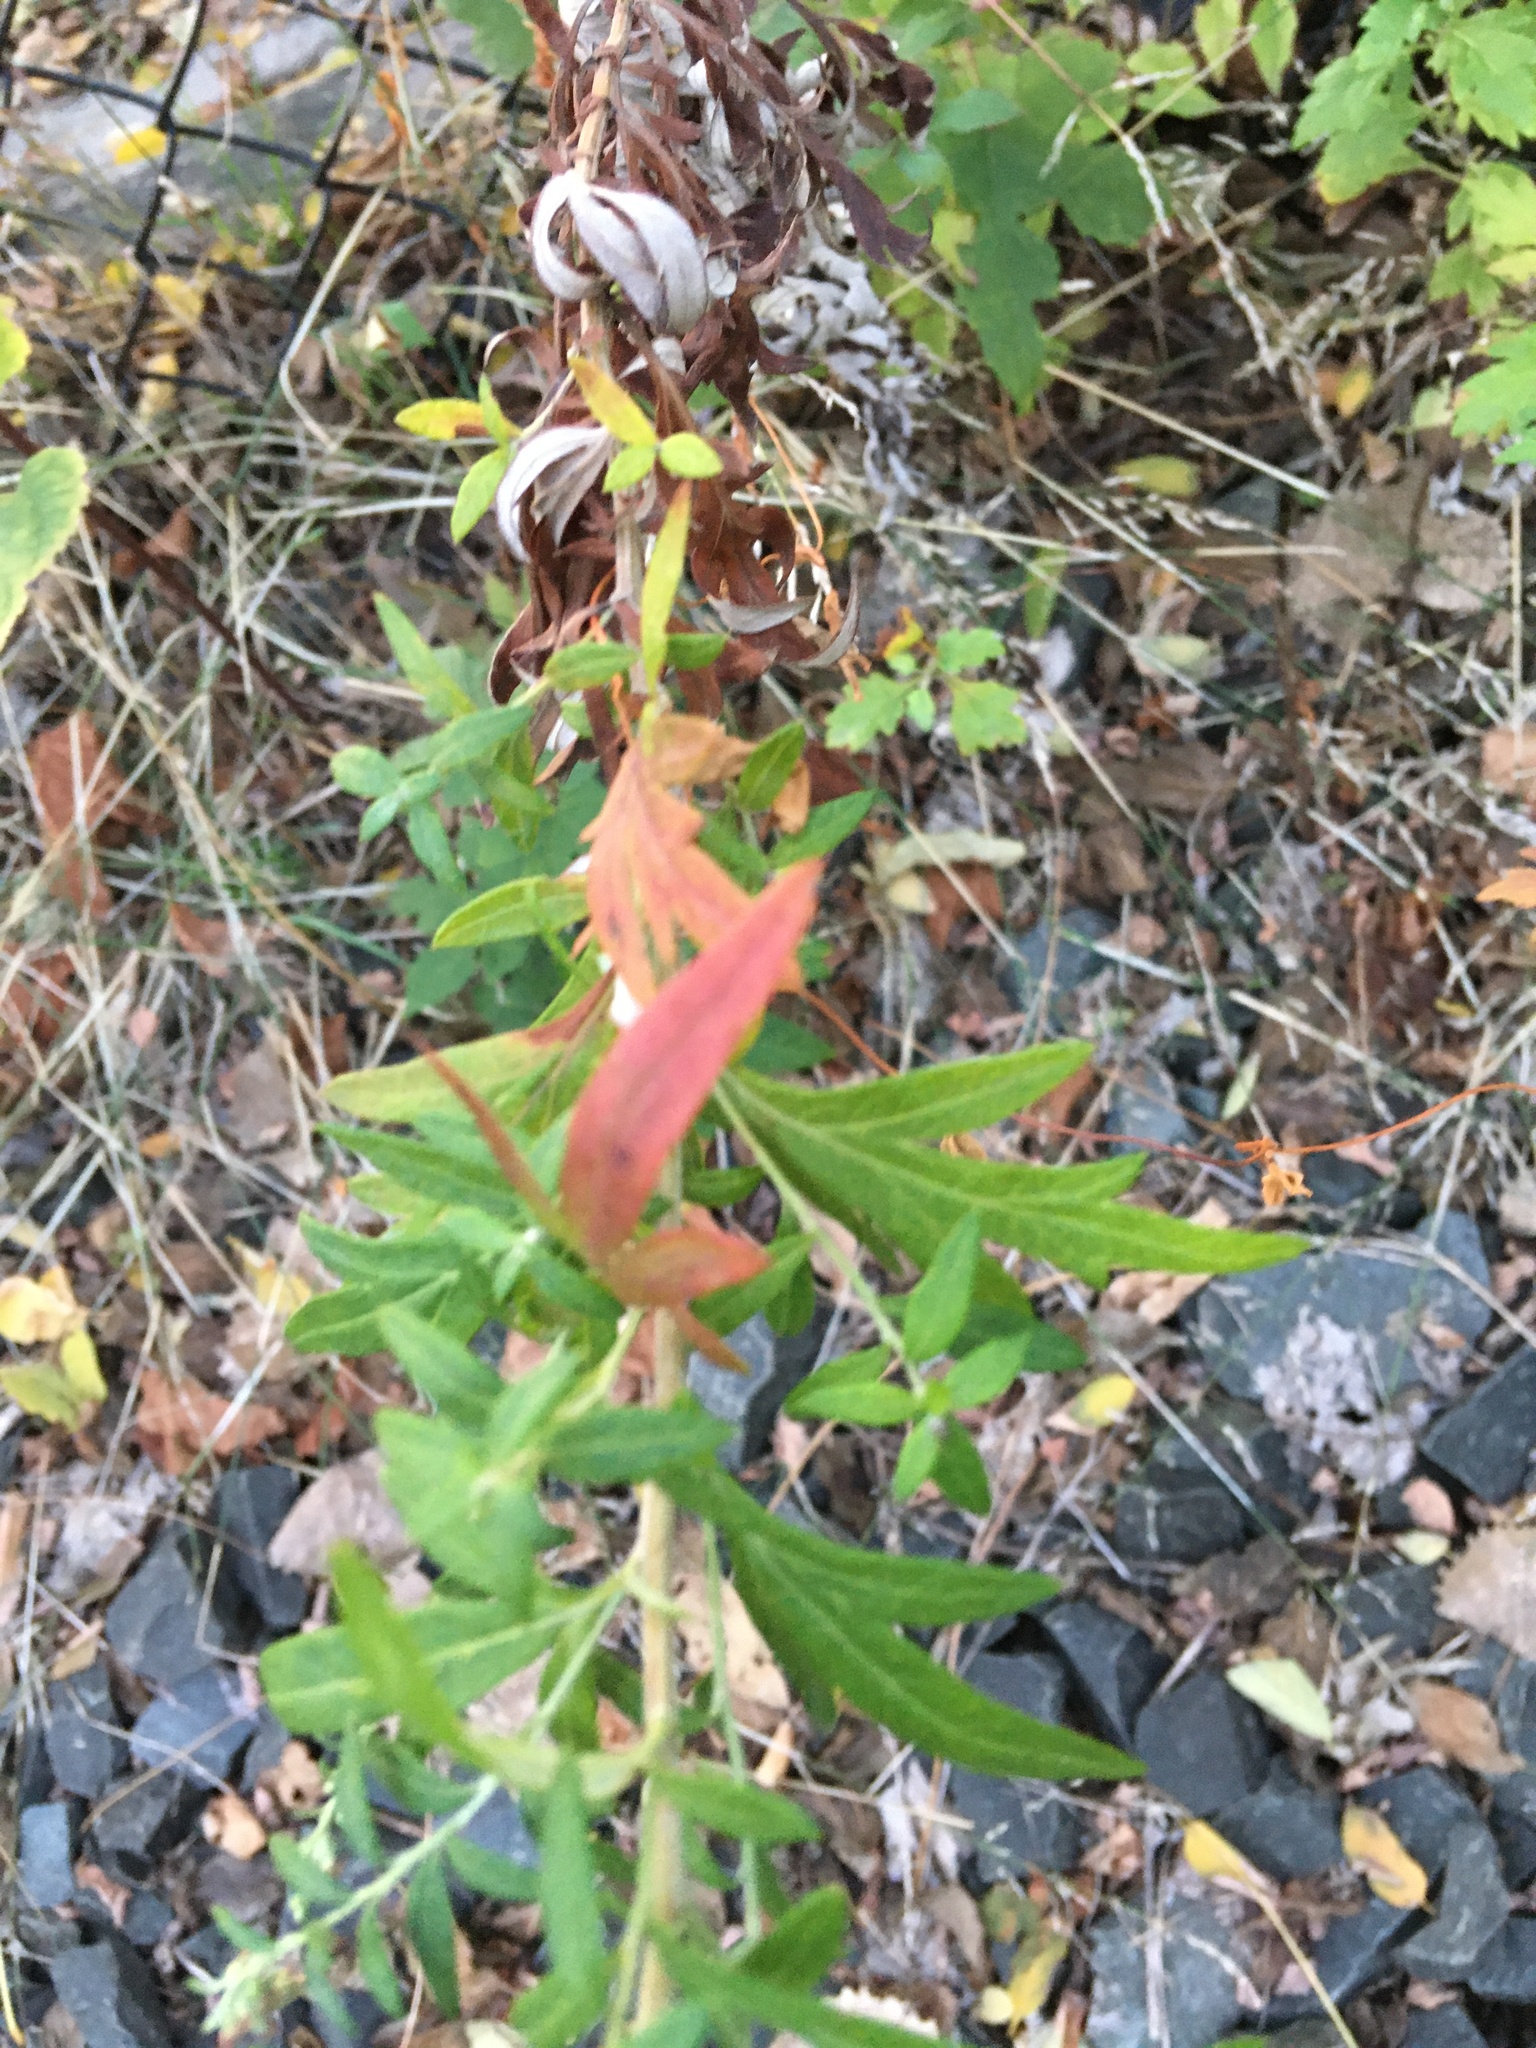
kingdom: Plantae
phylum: Tracheophyta
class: Magnoliopsida
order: Asterales
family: Asteraceae
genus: Artemisia
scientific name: Artemisia vulgaris
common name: Mugwort
